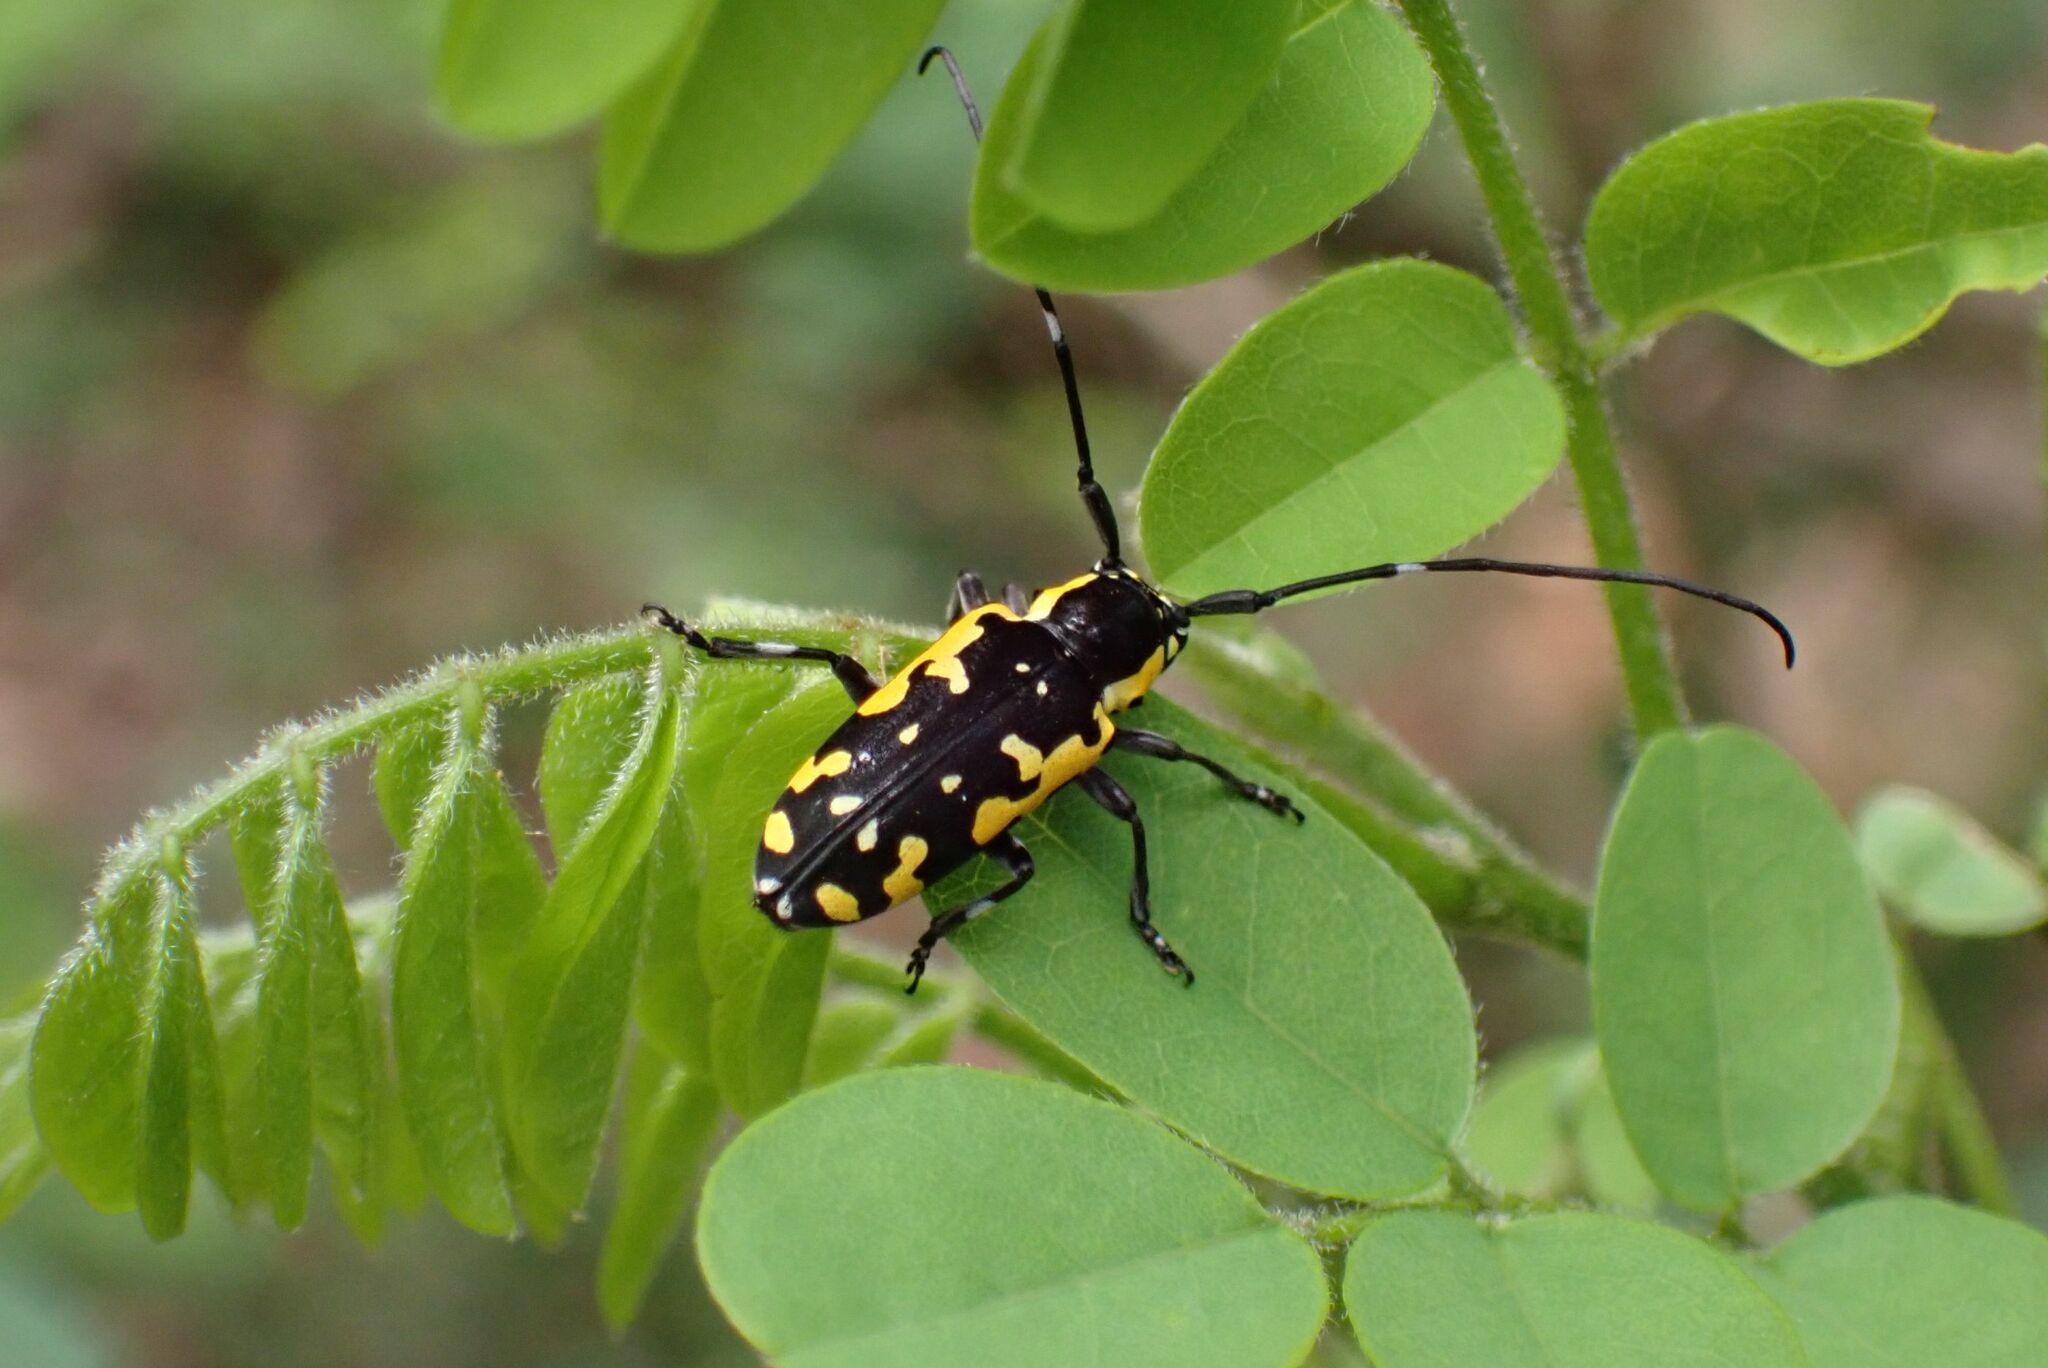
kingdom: Animalia
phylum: Arthropoda
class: Insecta
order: Coleoptera
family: Cerambycidae
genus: Solymus
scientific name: Solymus pictor
